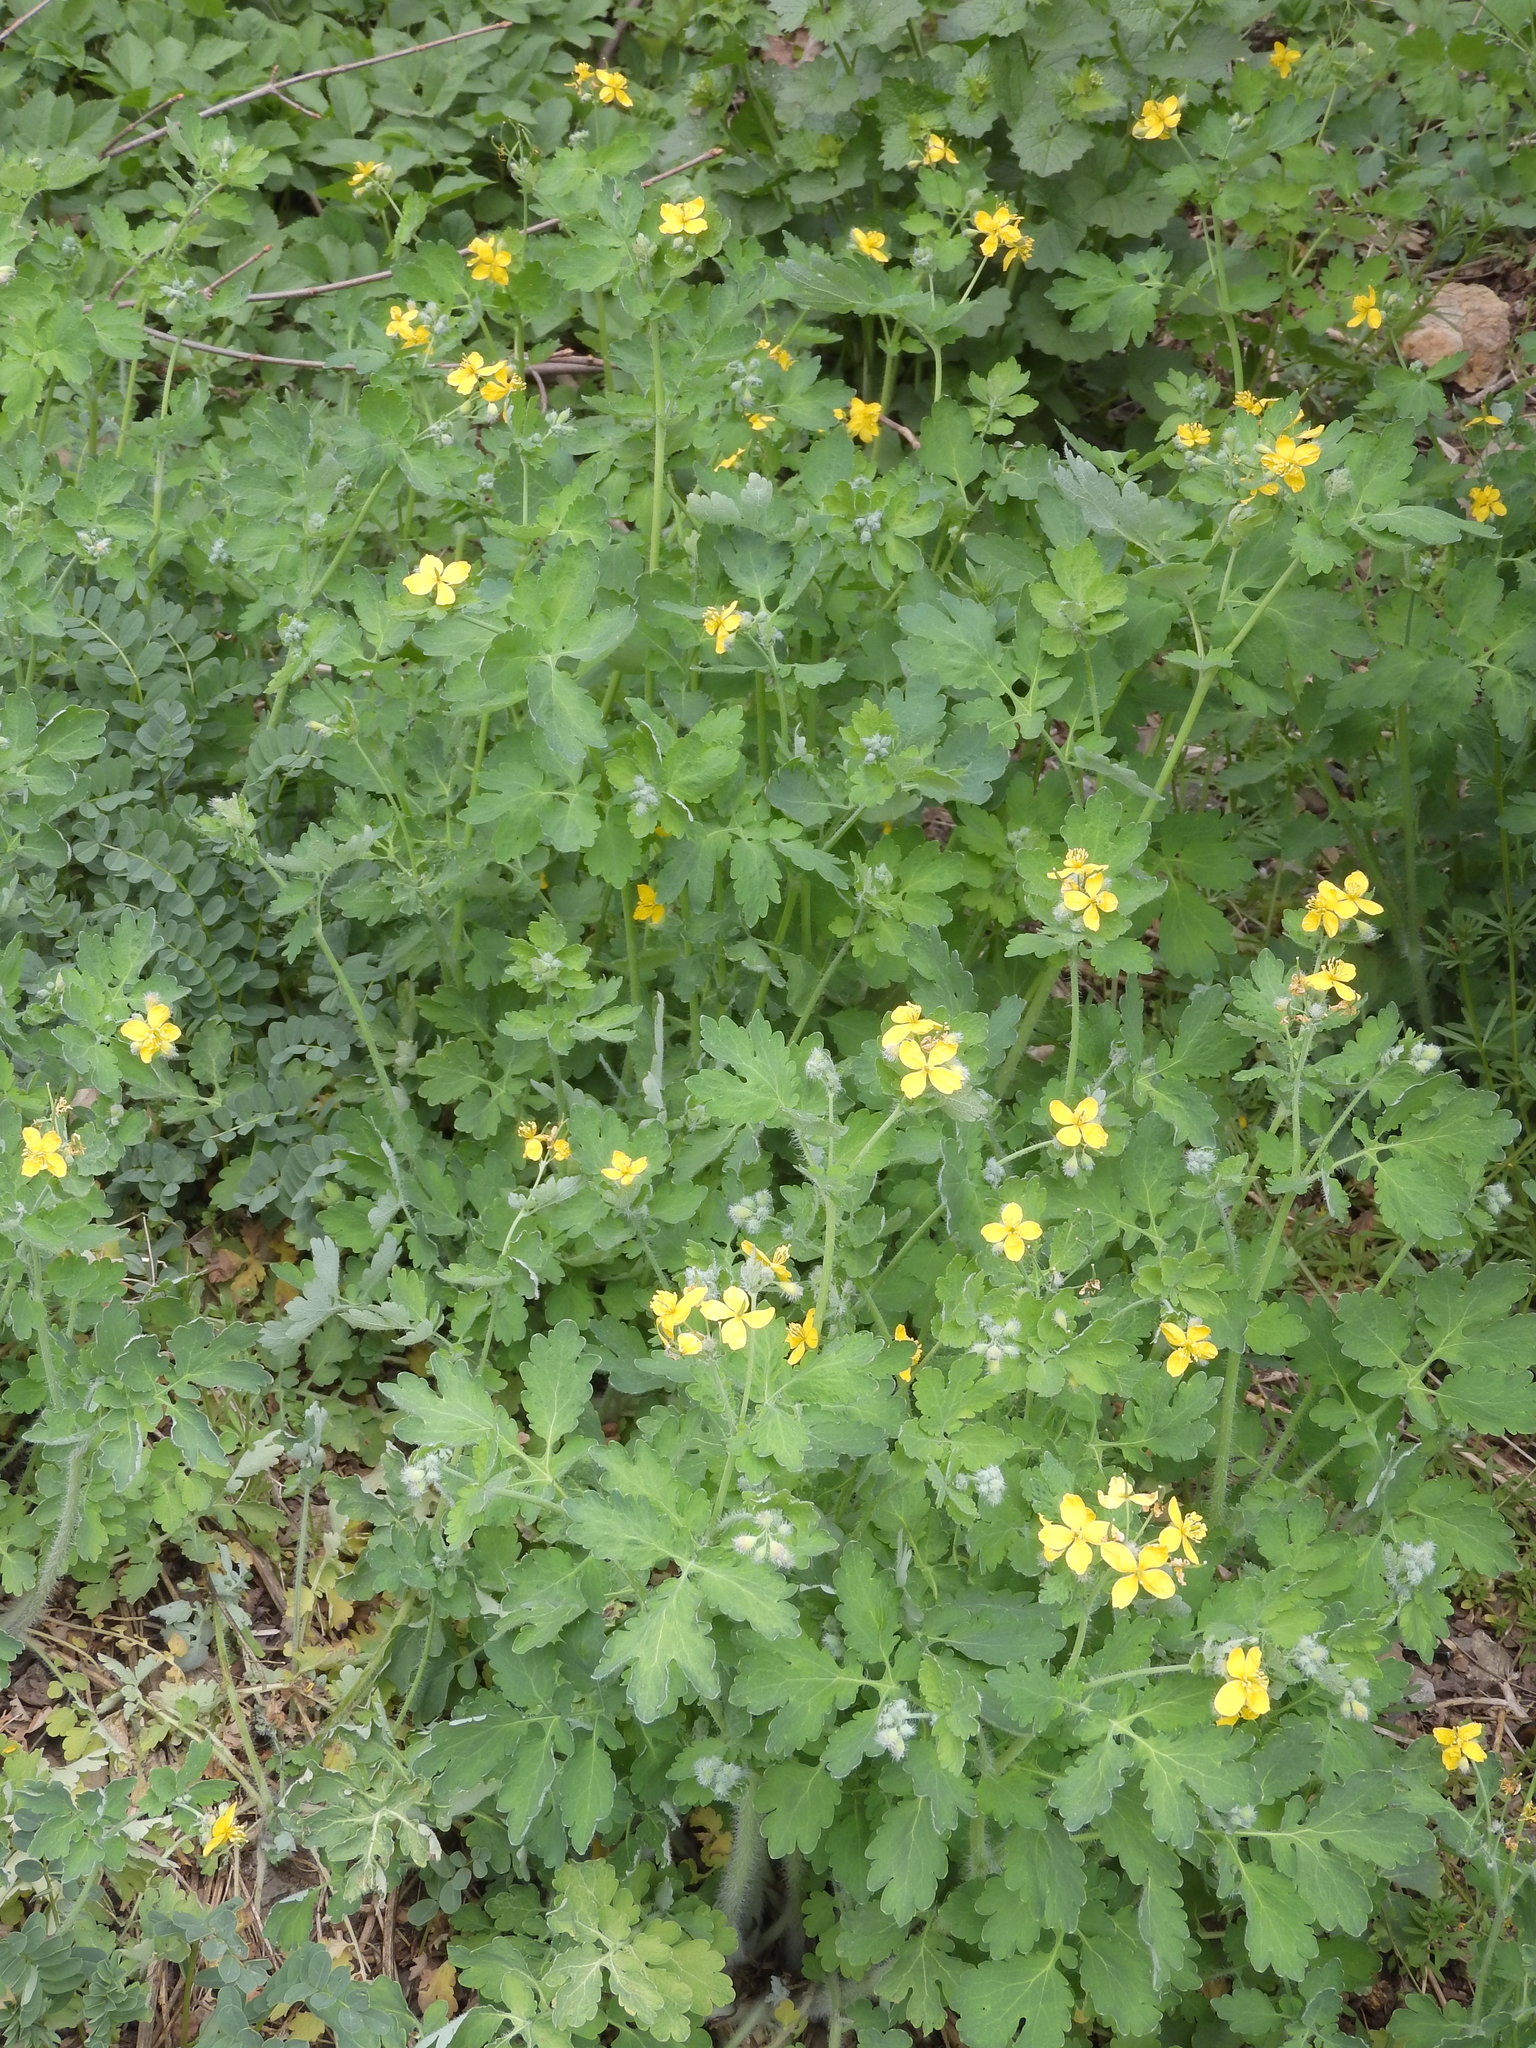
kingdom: Plantae
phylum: Tracheophyta
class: Magnoliopsida
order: Ranunculales
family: Papaveraceae
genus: Chelidonium
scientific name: Chelidonium majus
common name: Greater celandine
